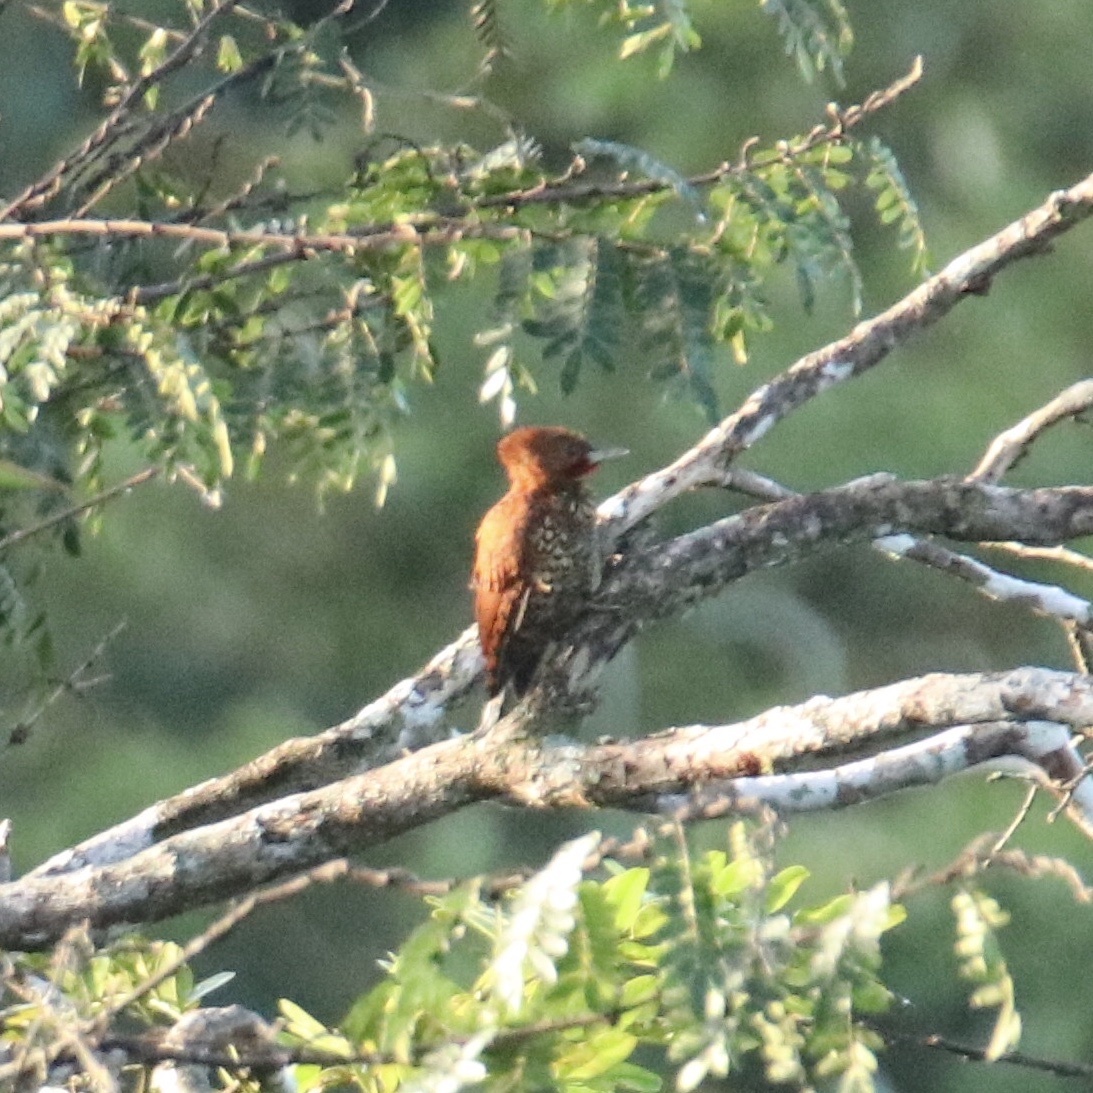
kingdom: Animalia
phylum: Chordata
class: Aves
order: Piciformes
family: Picidae
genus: Celeus
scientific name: Celeus loricatus
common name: Cinnamon woodpecker
